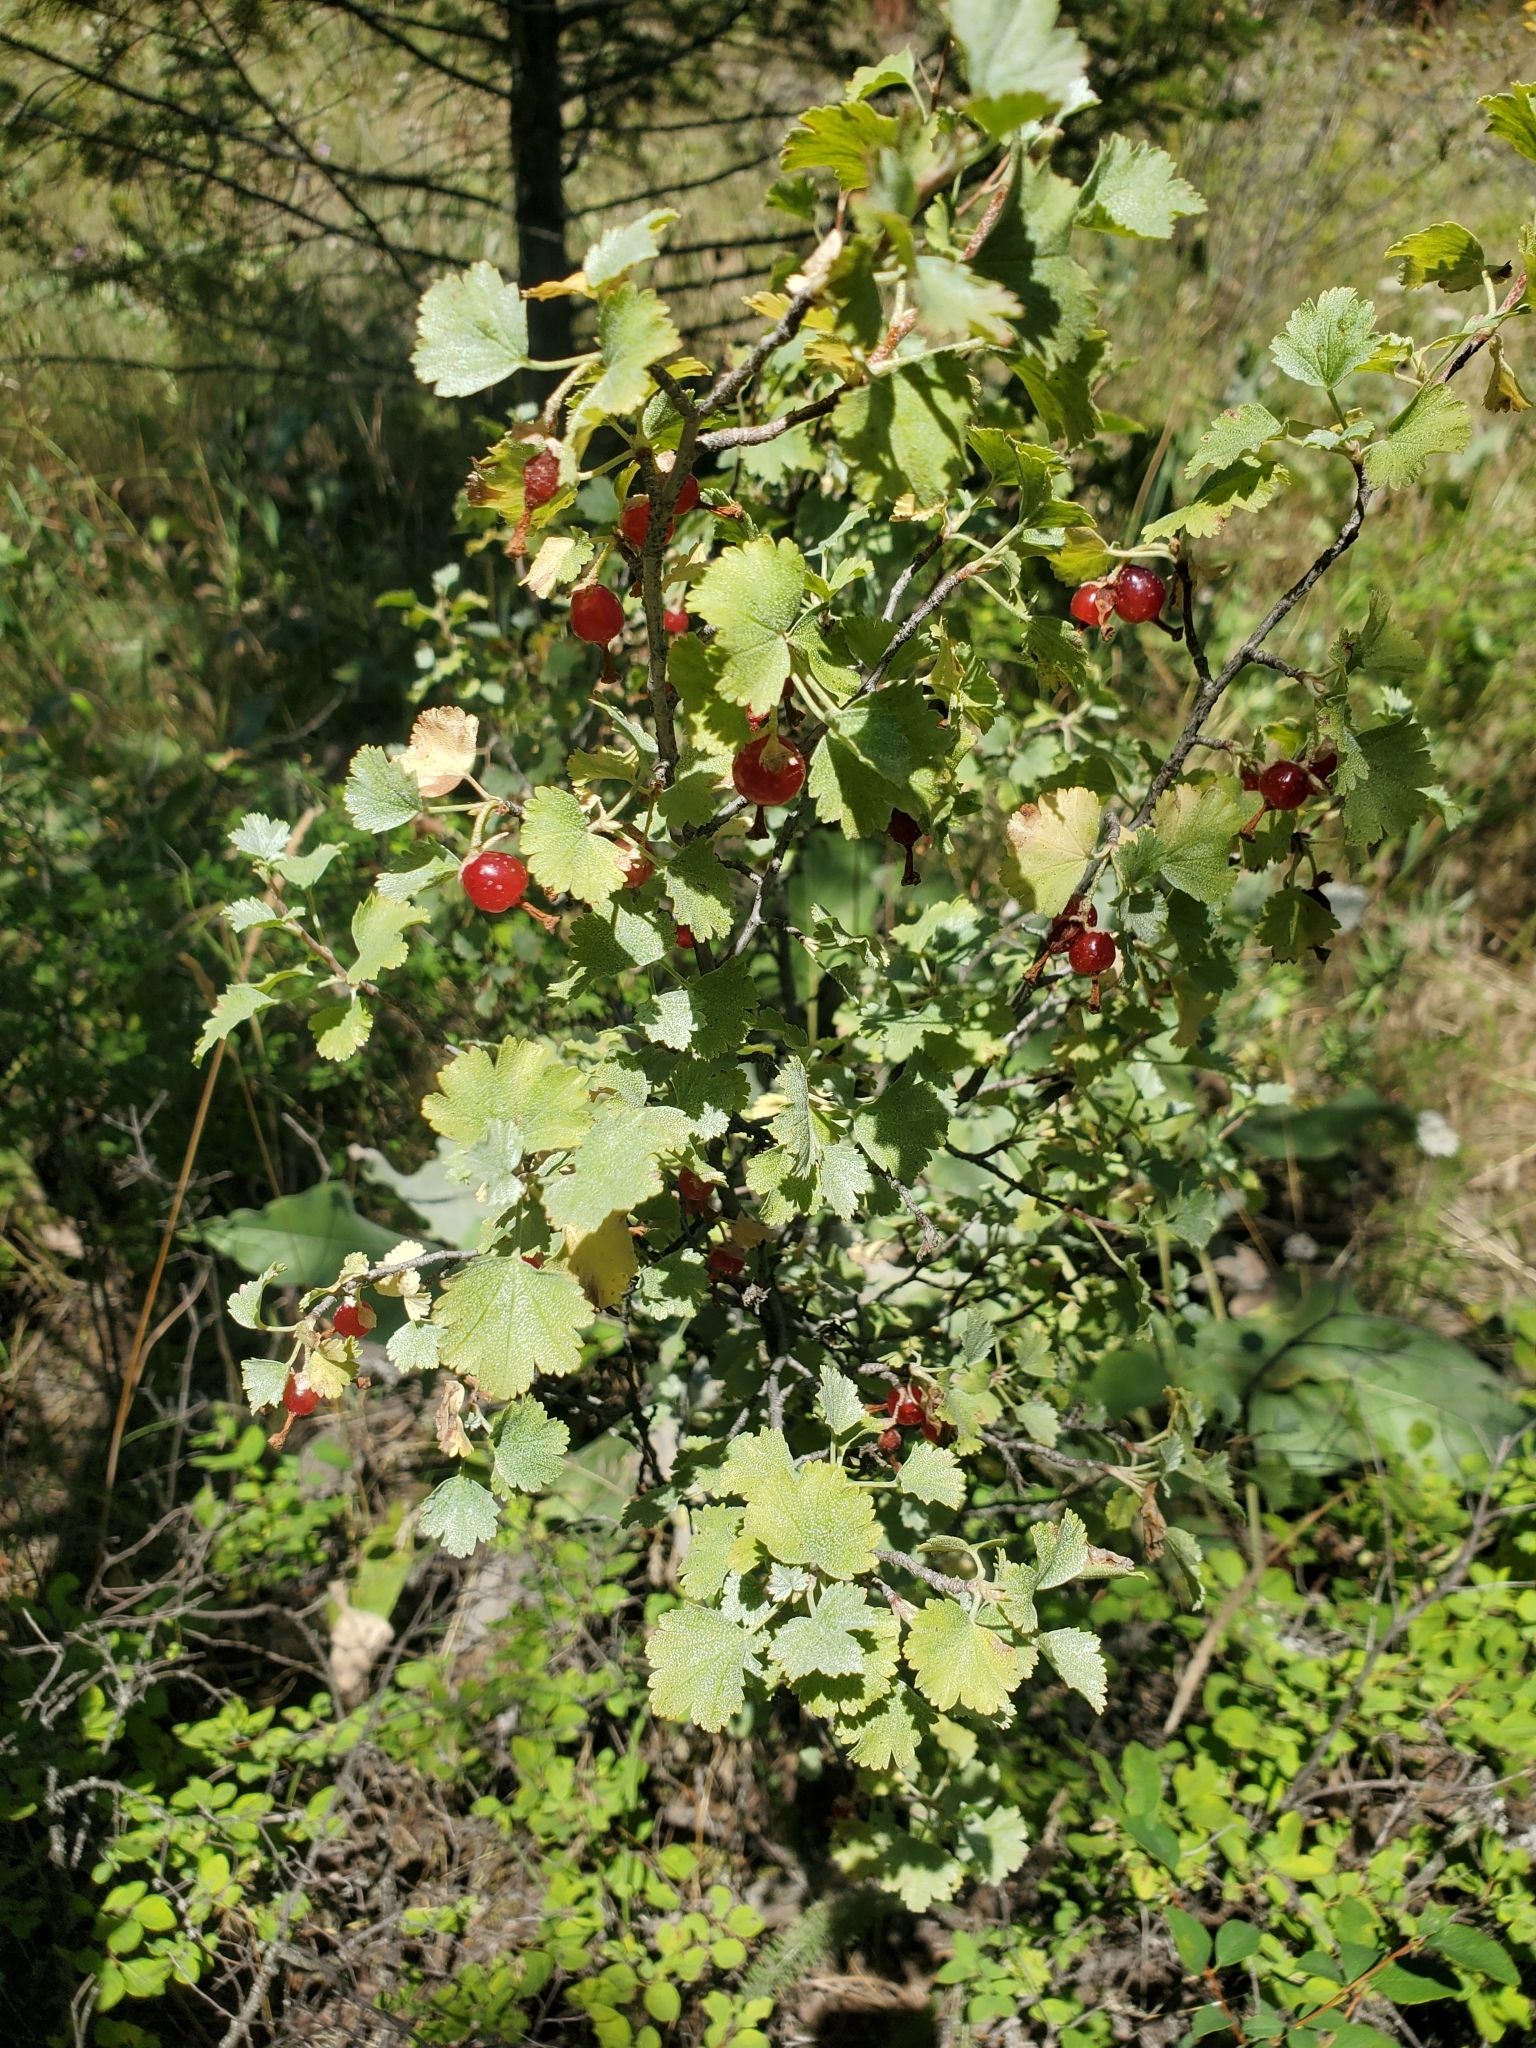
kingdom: Plantae
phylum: Tracheophyta
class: Magnoliopsida
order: Saxifragales
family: Grossulariaceae
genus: Ribes
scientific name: Ribes cereum
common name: Wax currant
